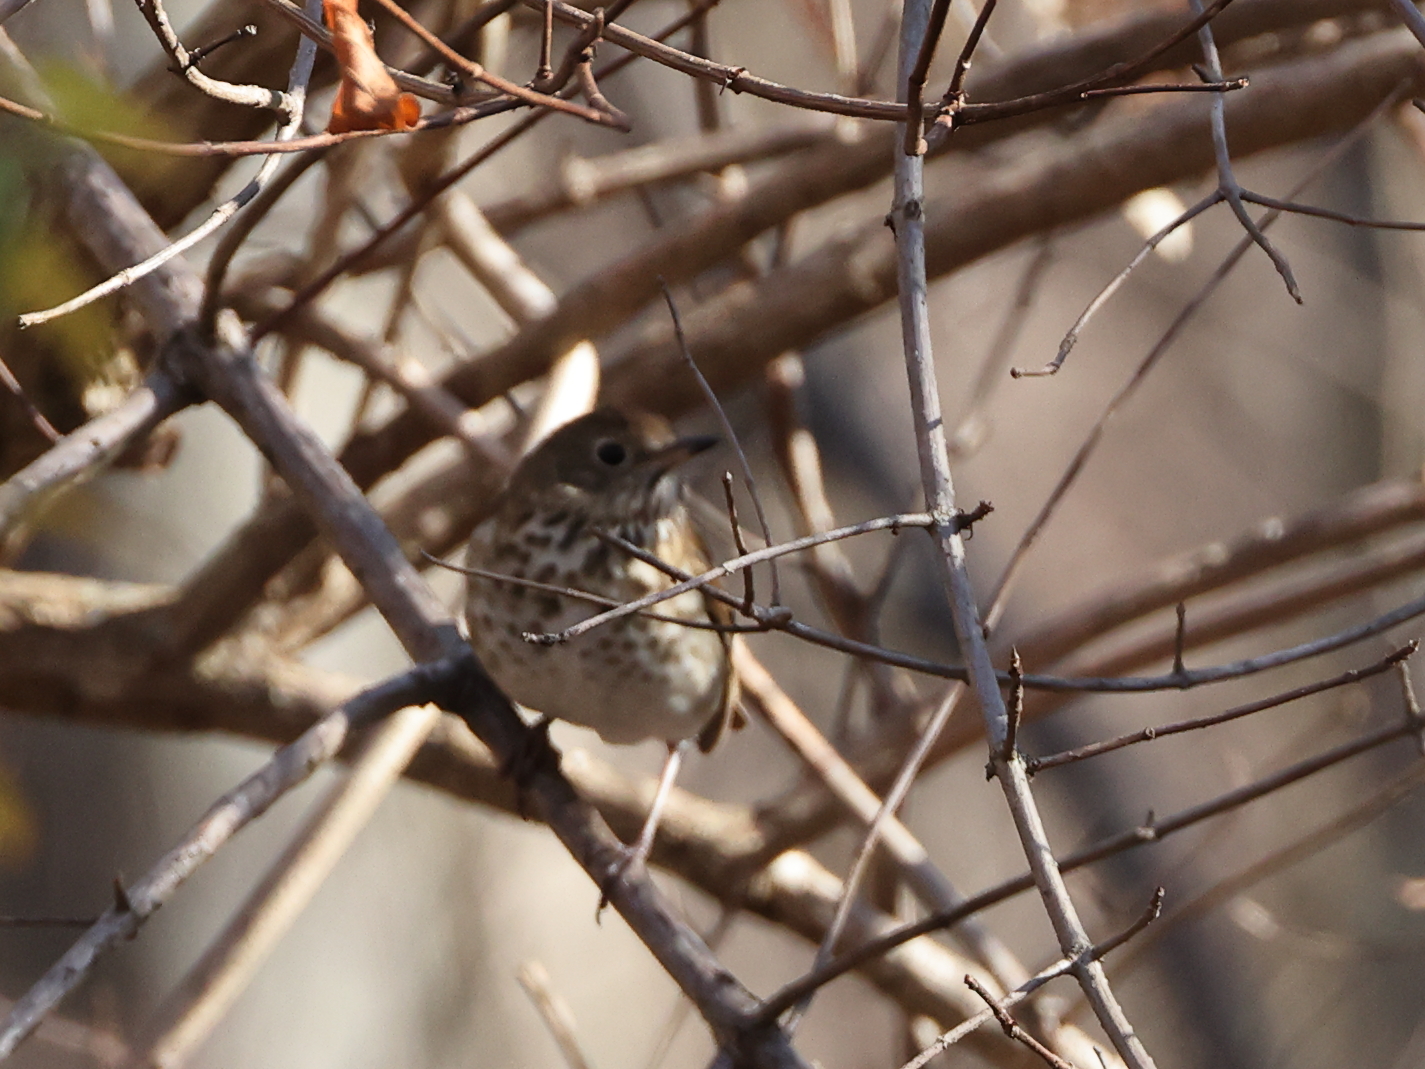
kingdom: Animalia
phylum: Chordata
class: Aves
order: Passeriformes
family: Turdidae
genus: Catharus
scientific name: Catharus guttatus
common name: Hermit thrush
